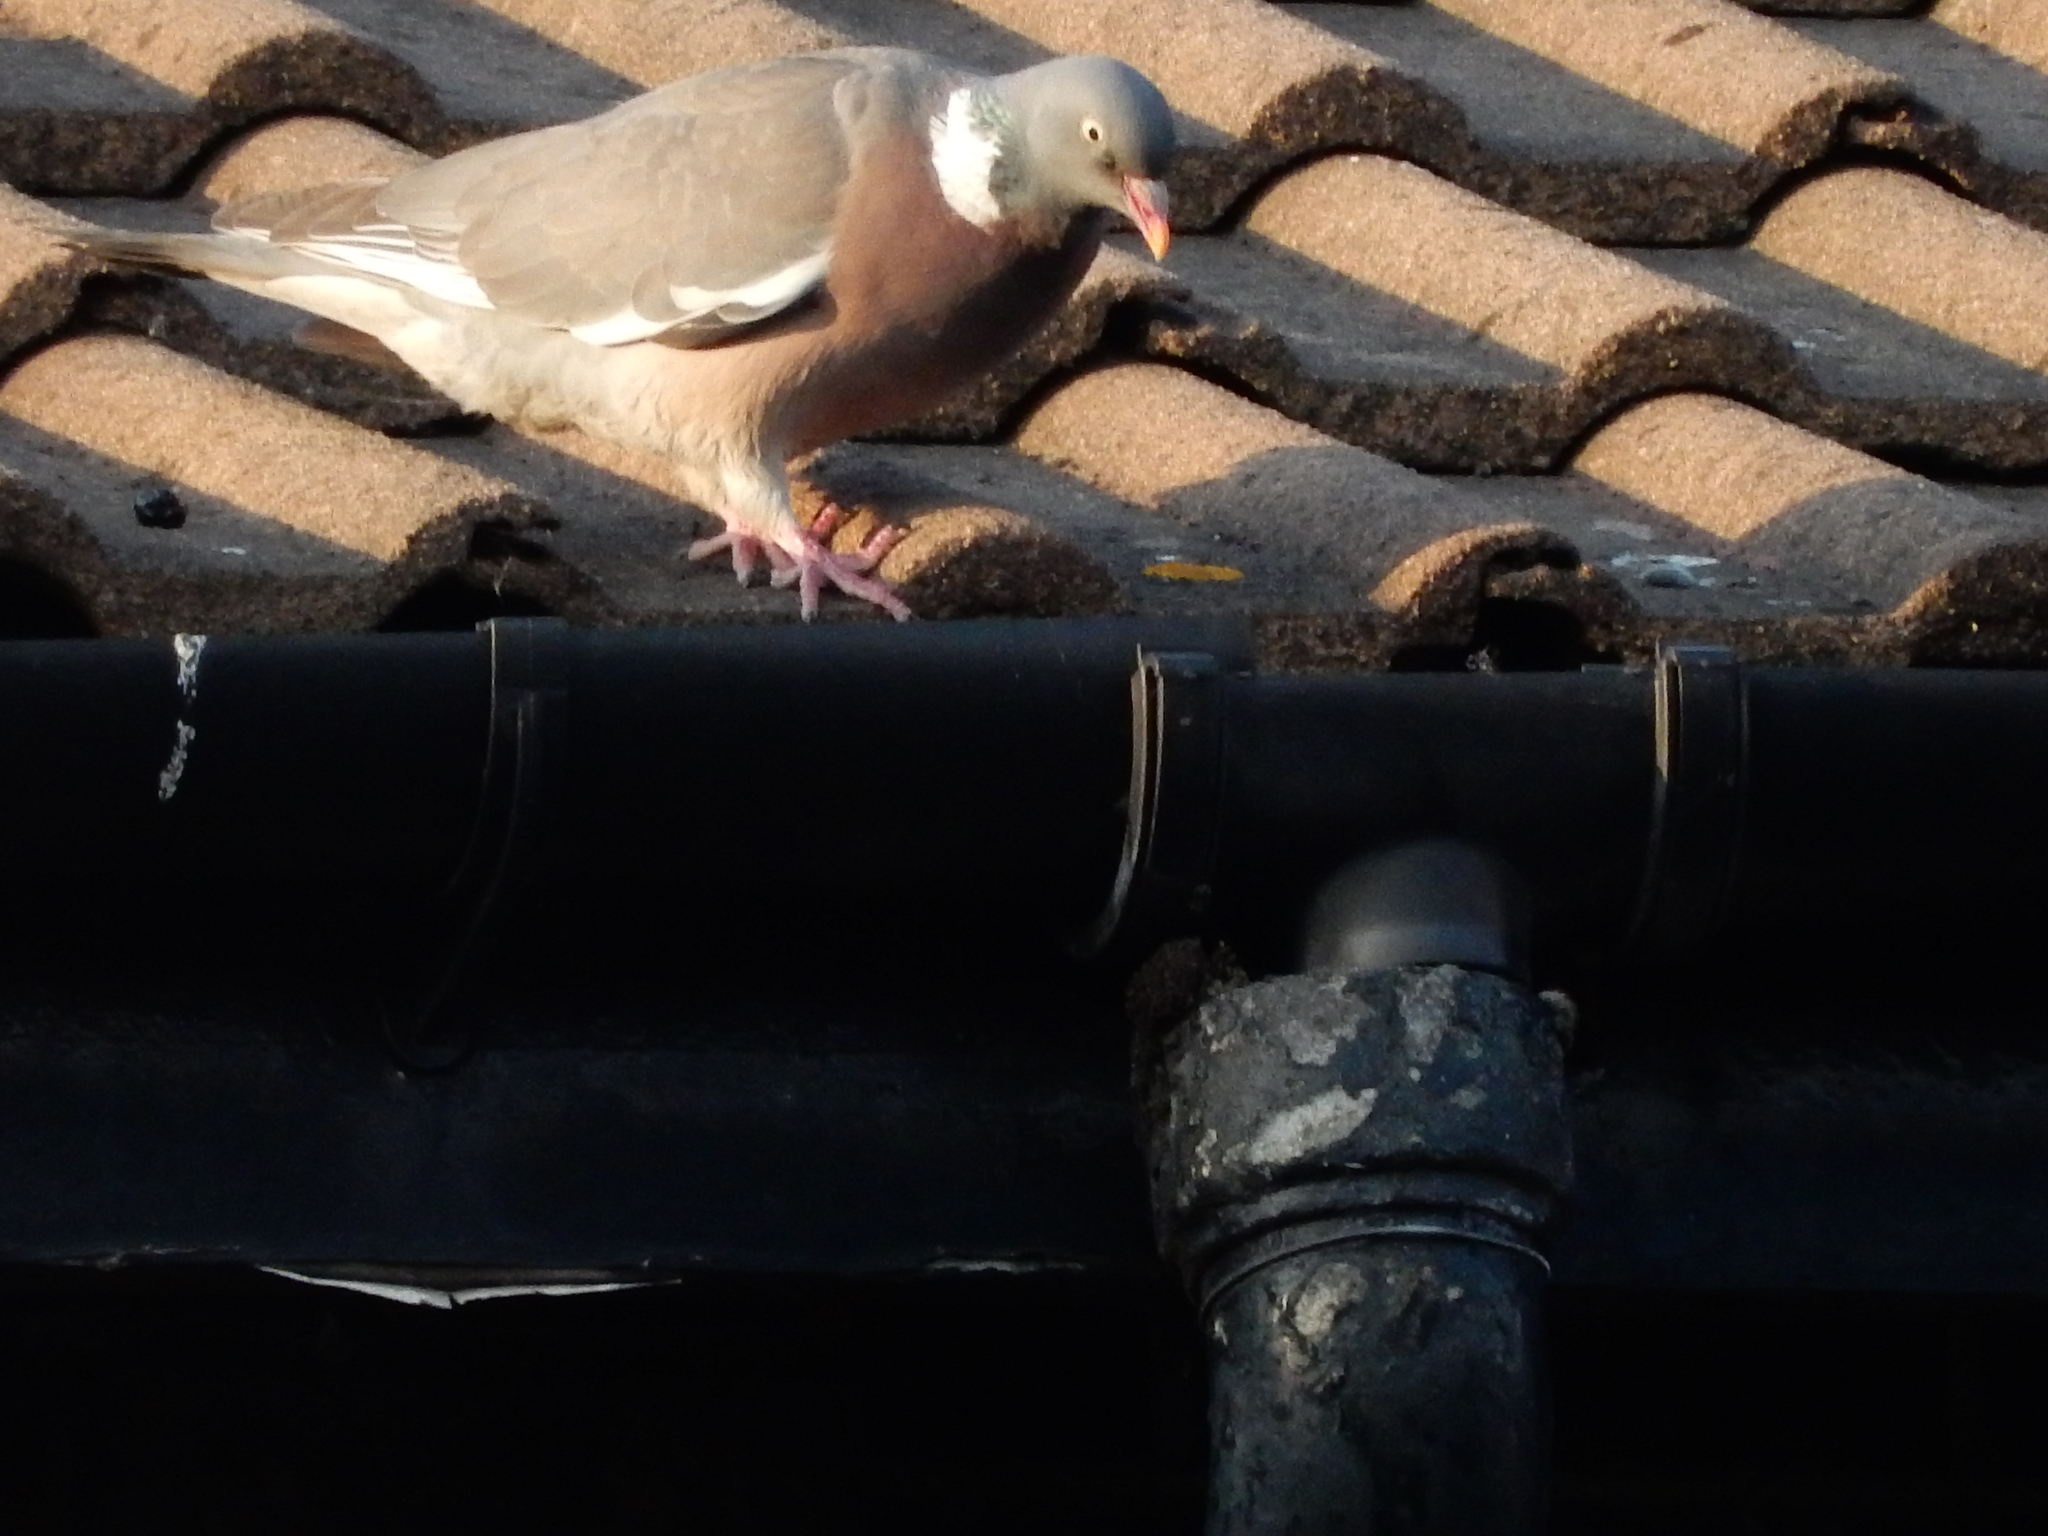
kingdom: Animalia
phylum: Chordata
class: Aves
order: Columbiformes
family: Columbidae
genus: Columba
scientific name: Columba palumbus
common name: Common wood pigeon
